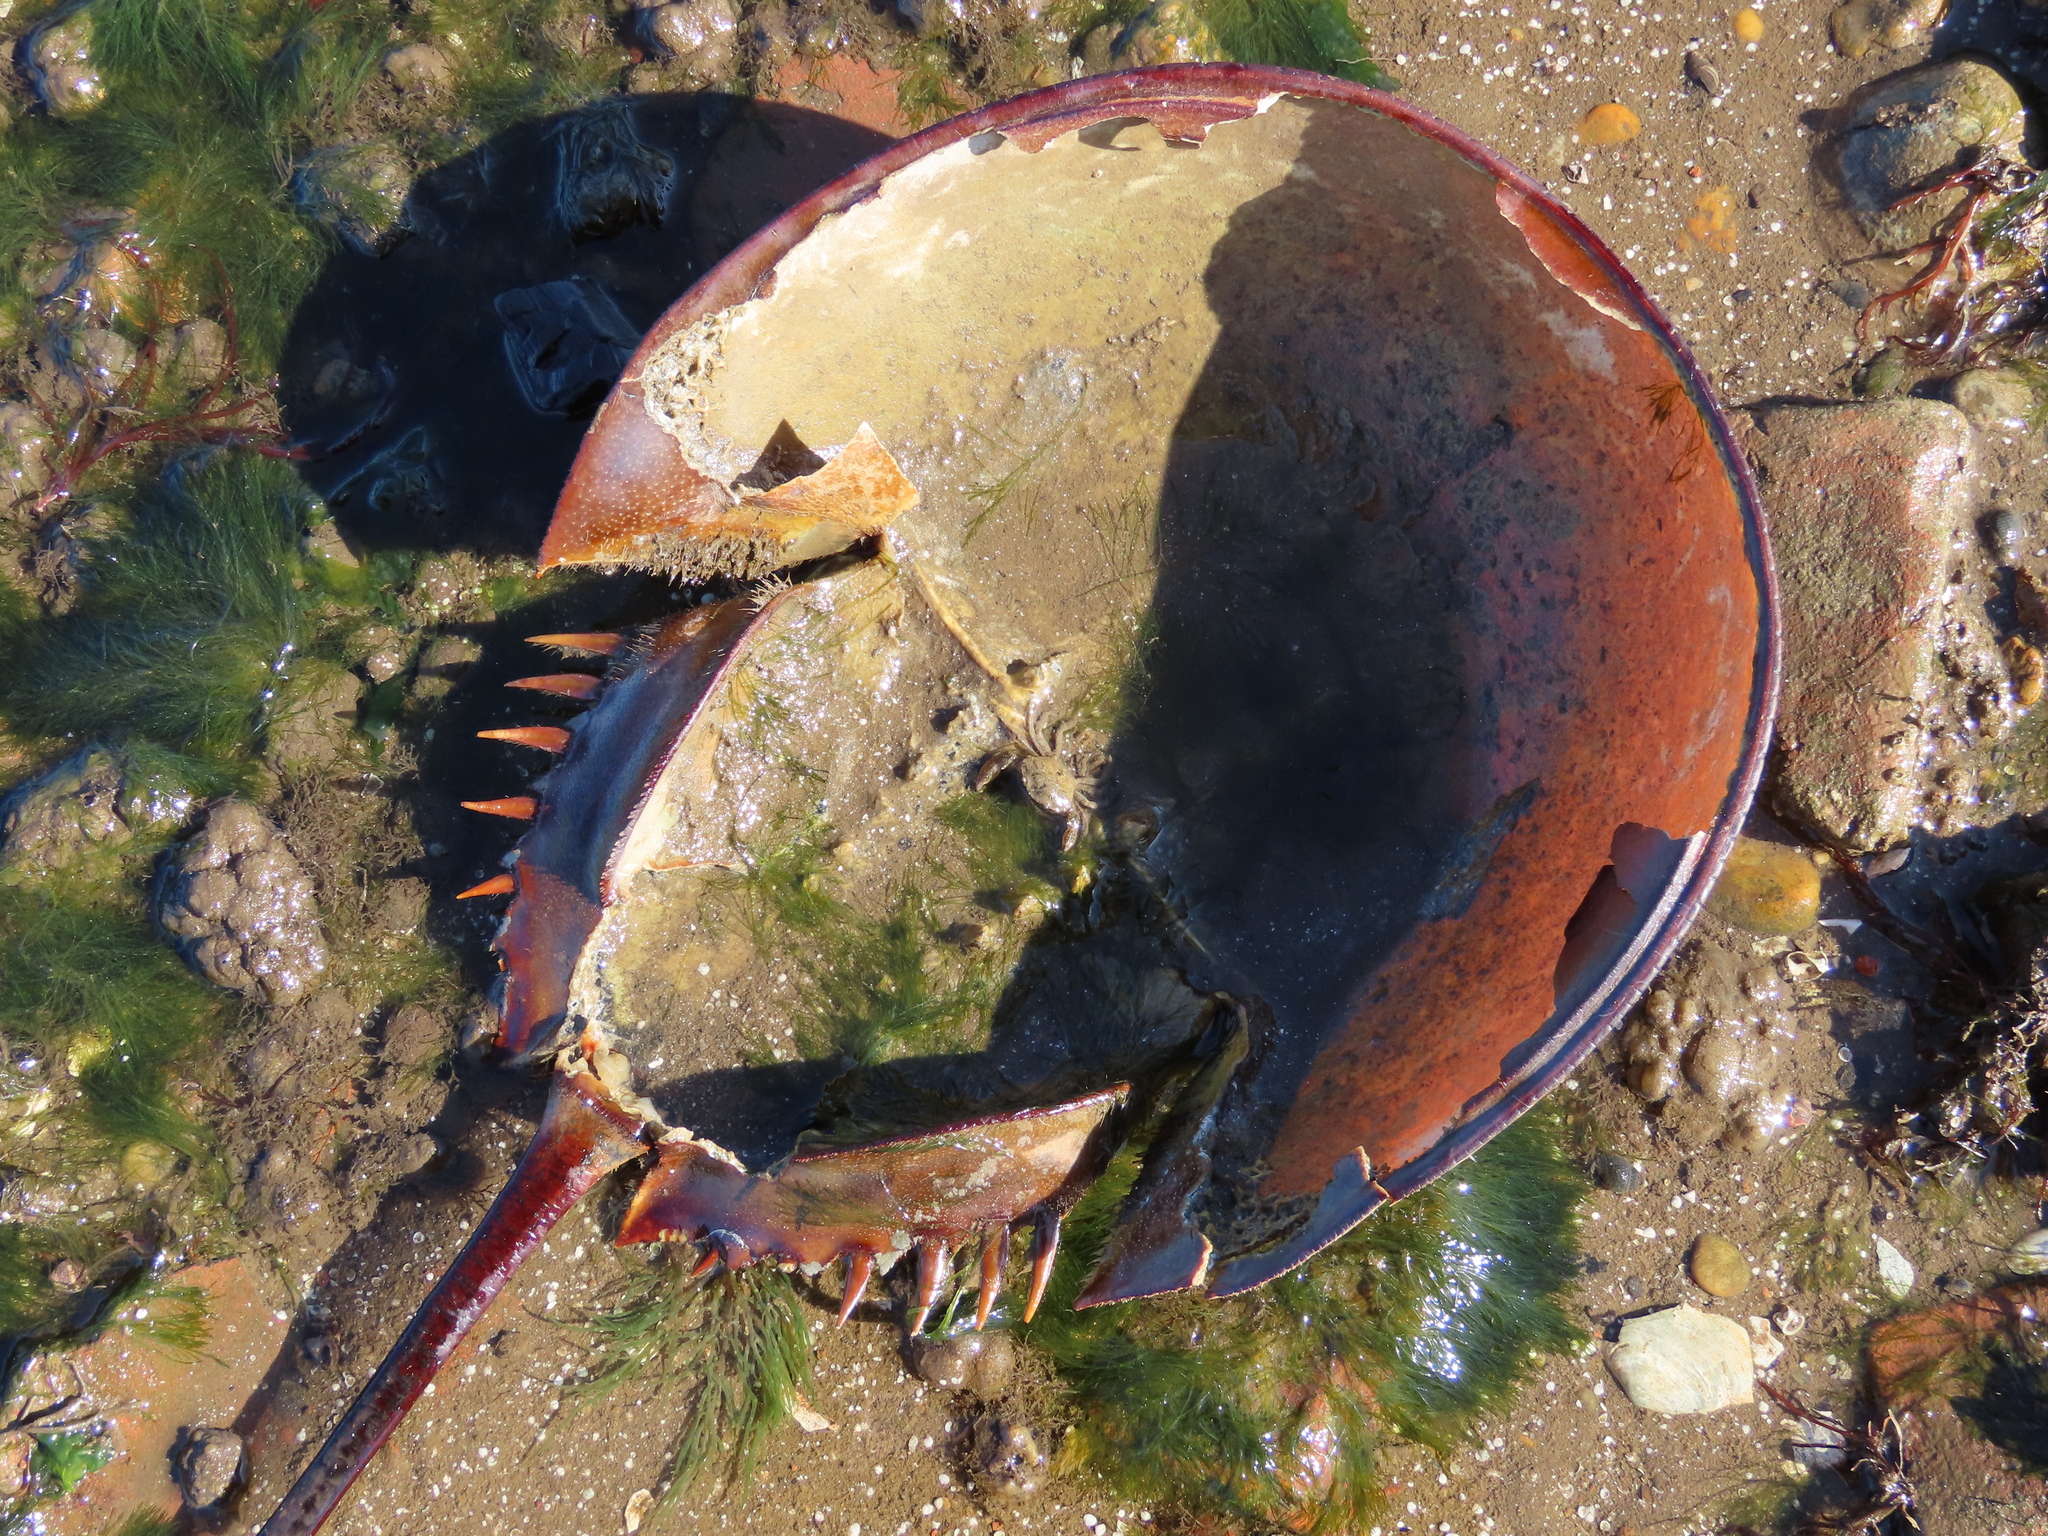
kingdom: Animalia
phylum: Arthropoda
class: Merostomata
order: Xiphosurida
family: Limulidae
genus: Limulus
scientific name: Limulus polyphemus
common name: Horseshoe crab
